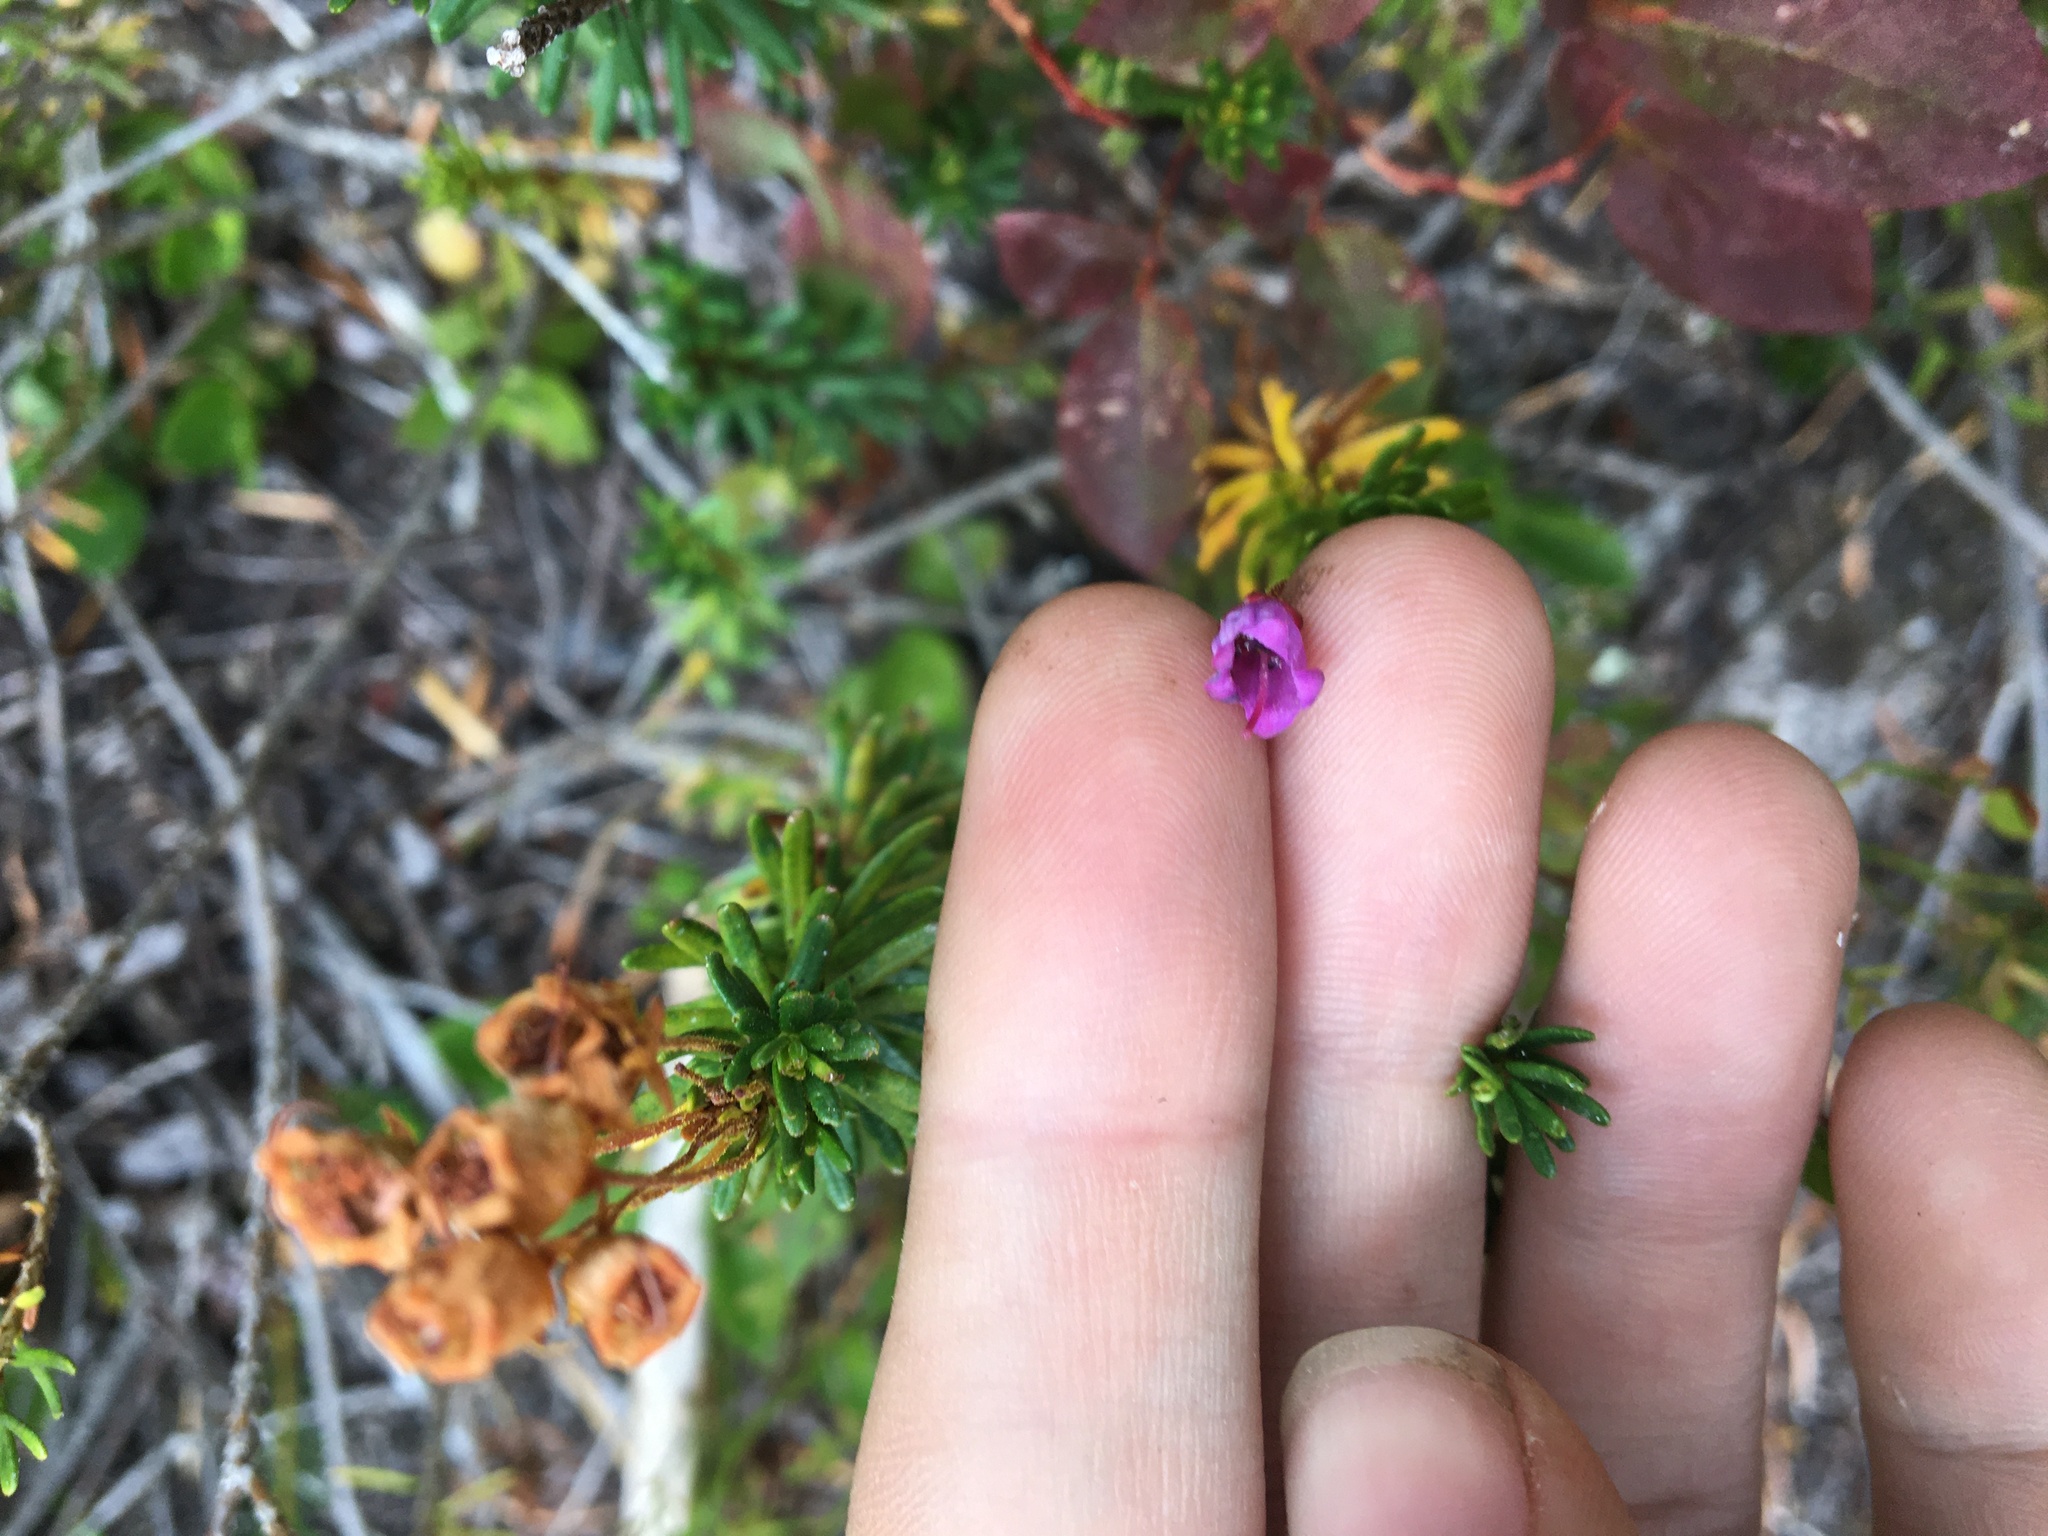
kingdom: Plantae
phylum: Tracheophyta
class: Magnoliopsida
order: Ericales
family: Ericaceae
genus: Phyllodoce
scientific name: Phyllodoce empetriformis
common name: Pink mountain heather
